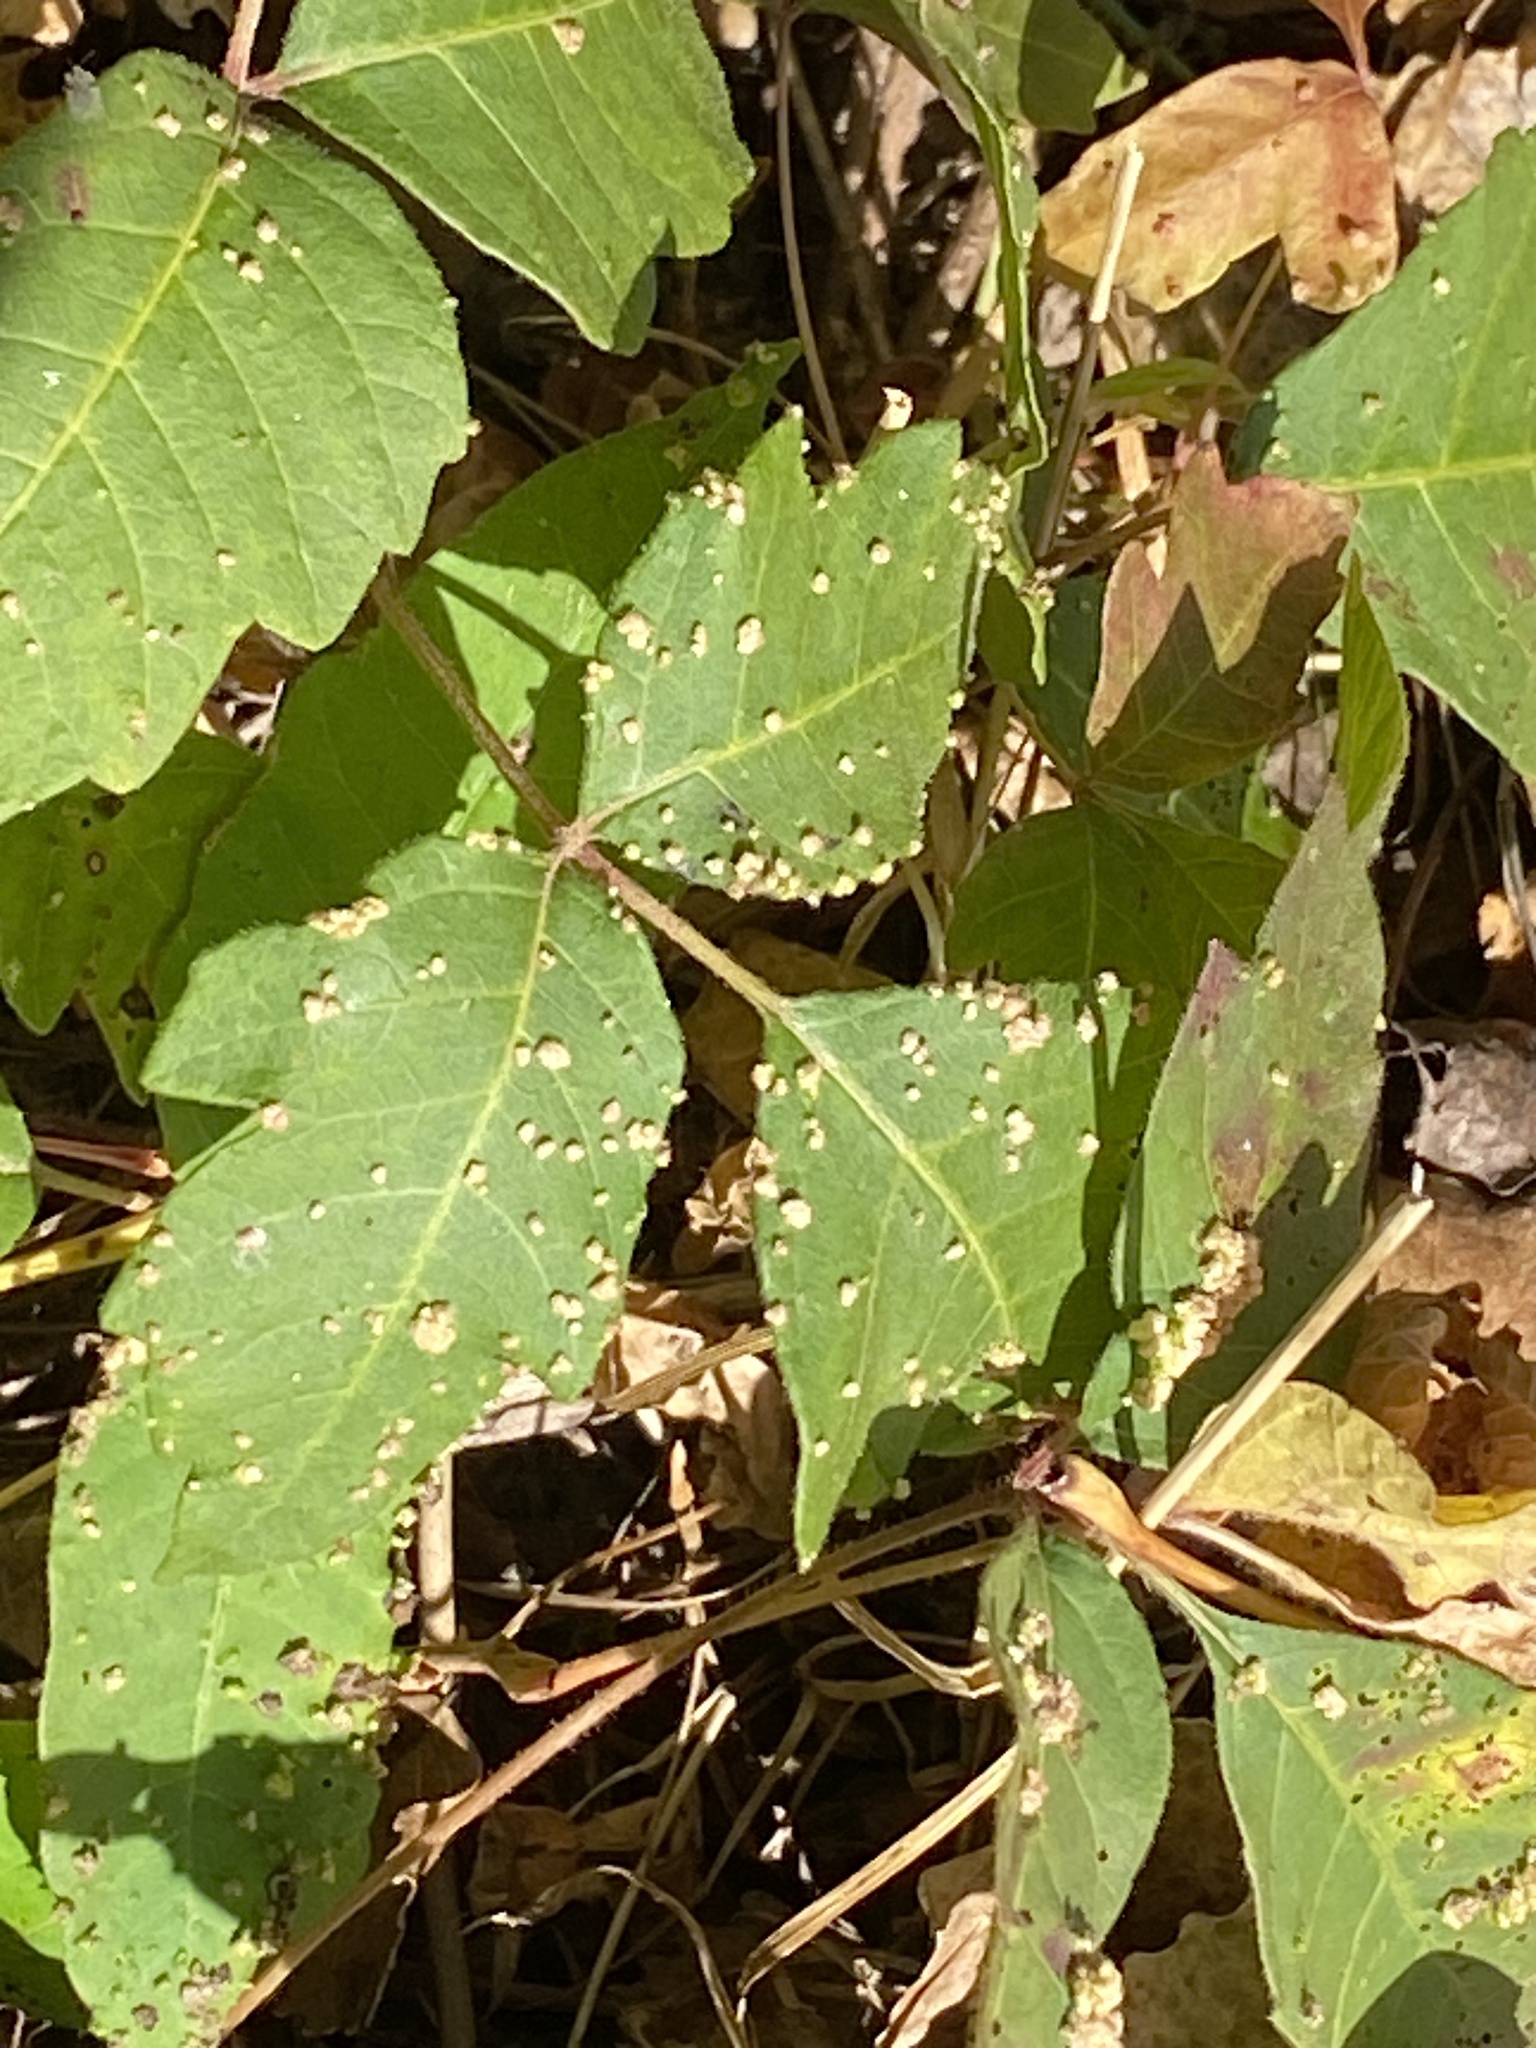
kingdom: Animalia
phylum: Arthropoda
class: Arachnida
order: Trombidiformes
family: Eriophyidae
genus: Aculops
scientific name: Aculops
